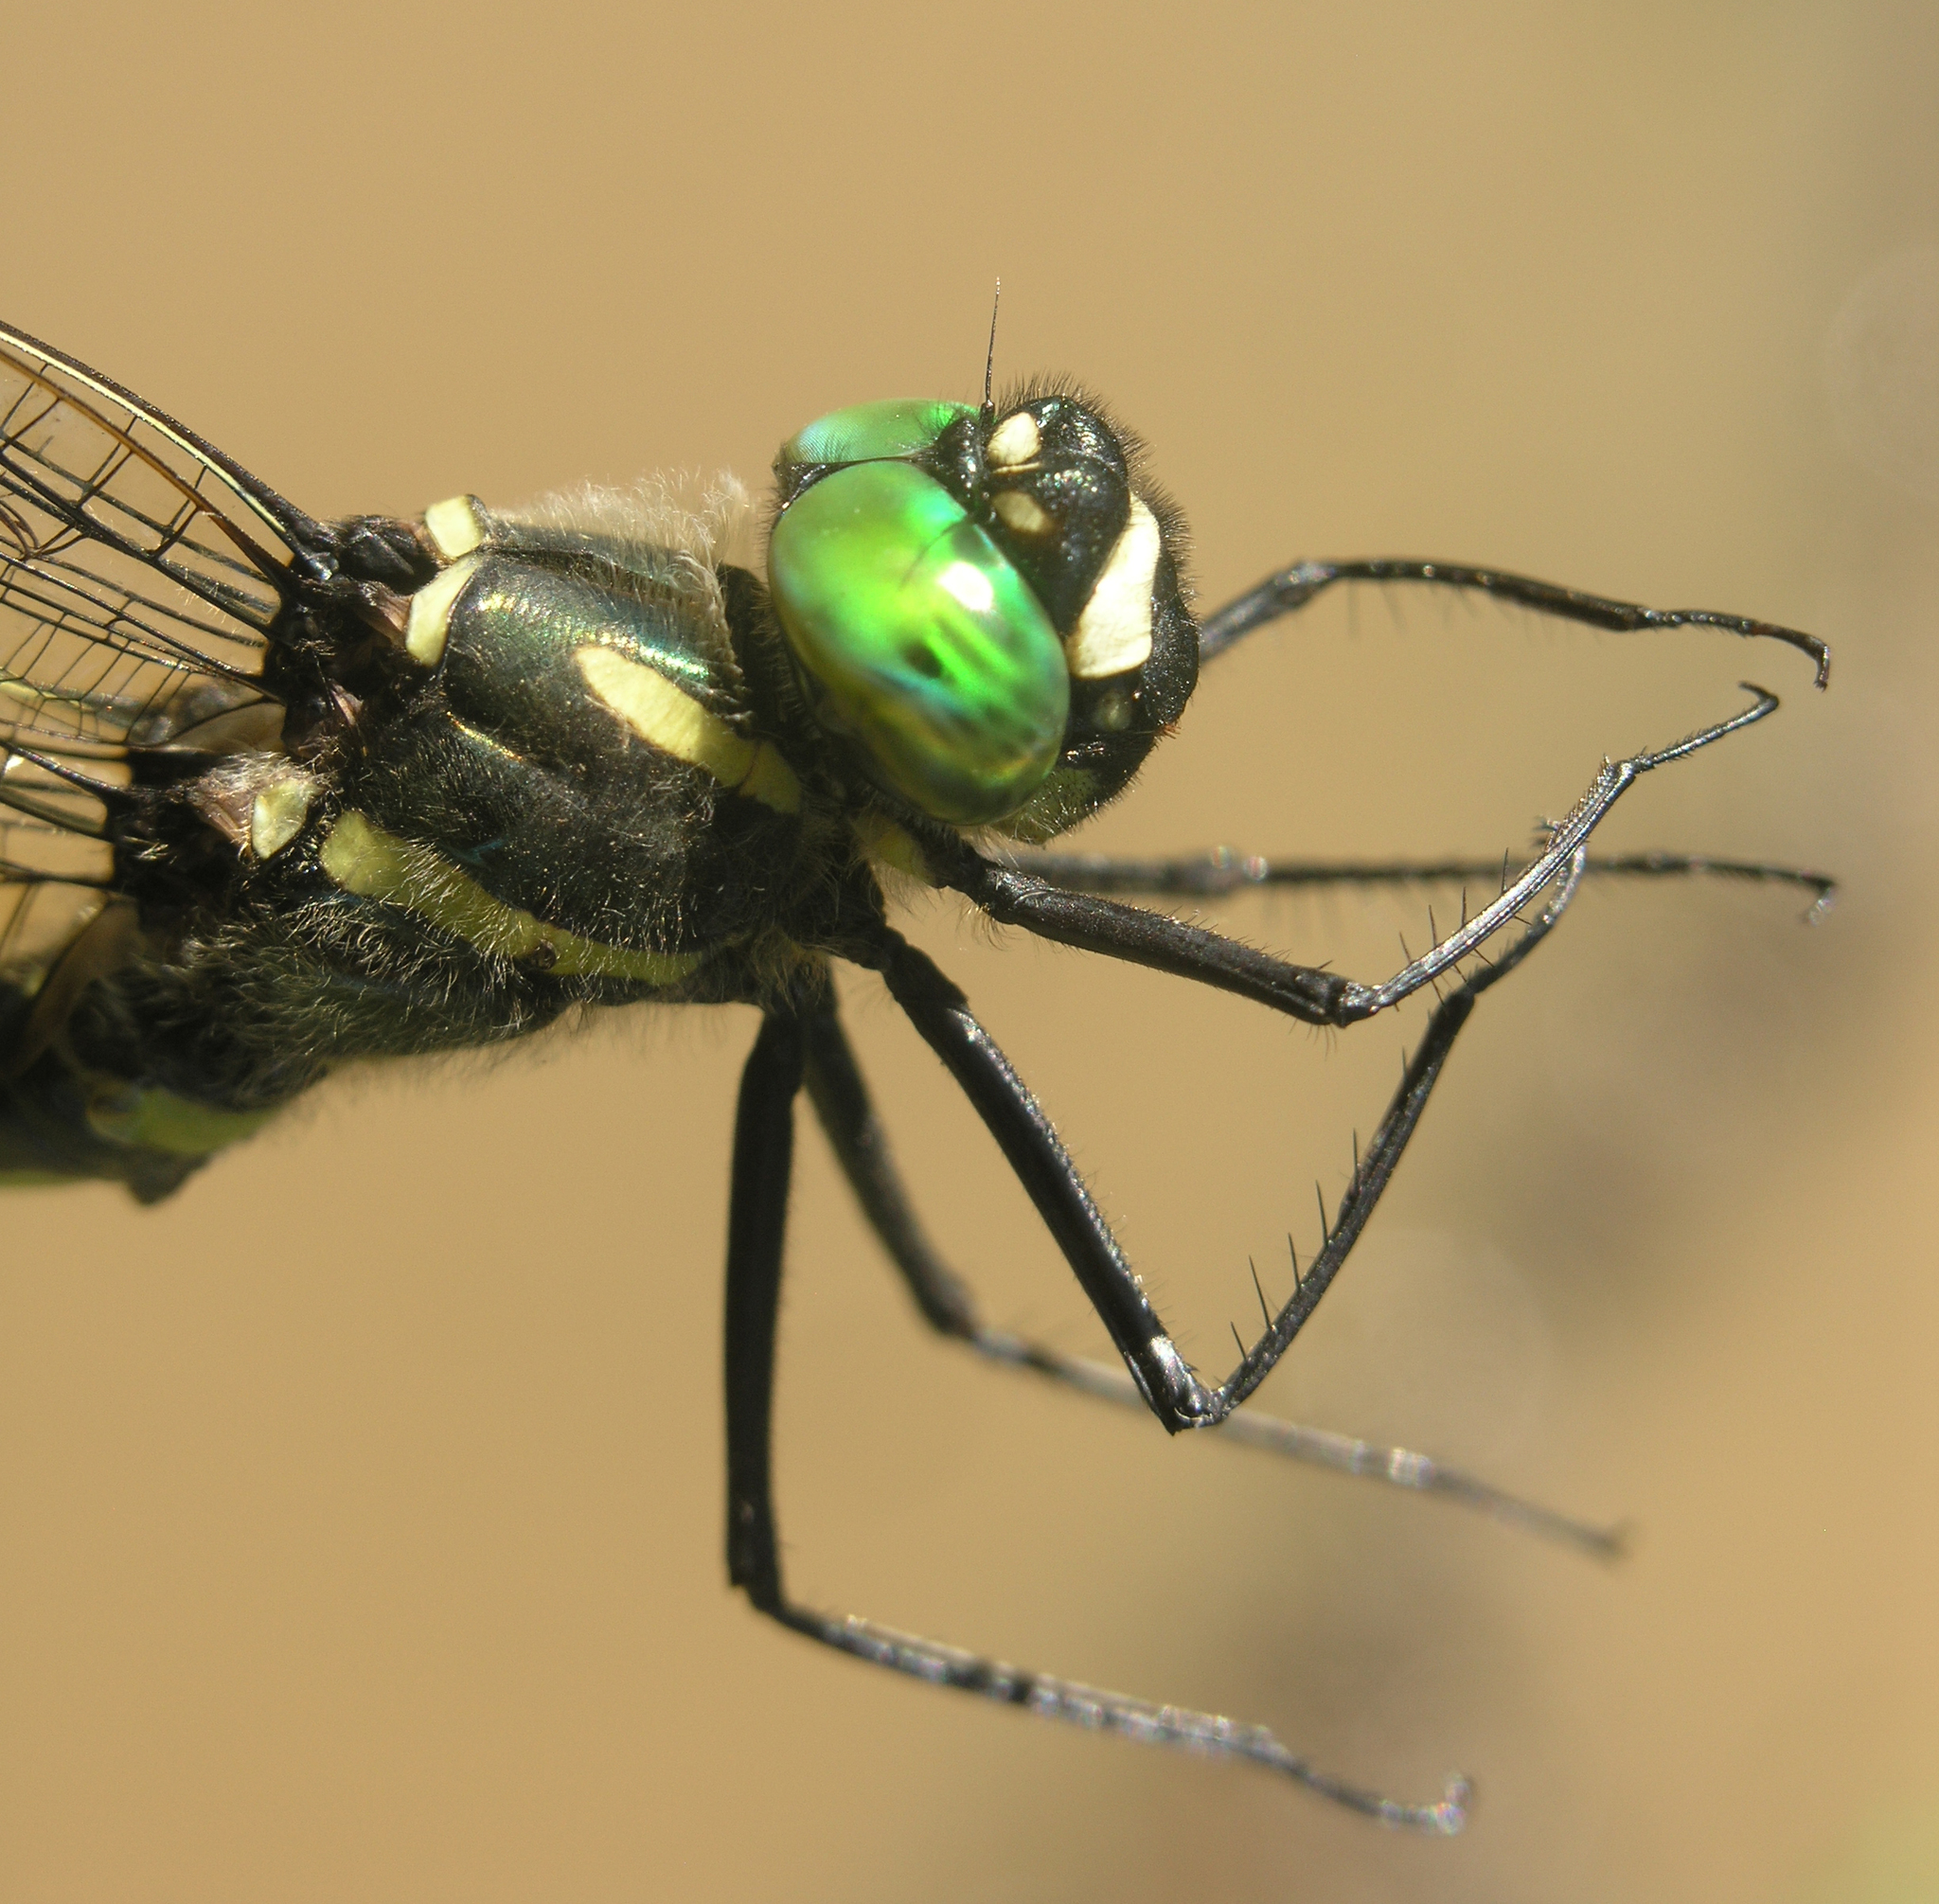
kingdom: Animalia
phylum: Arthropoda
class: Insecta
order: Odonata
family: Macromiidae
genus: Macromia
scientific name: Macromia amphigena
